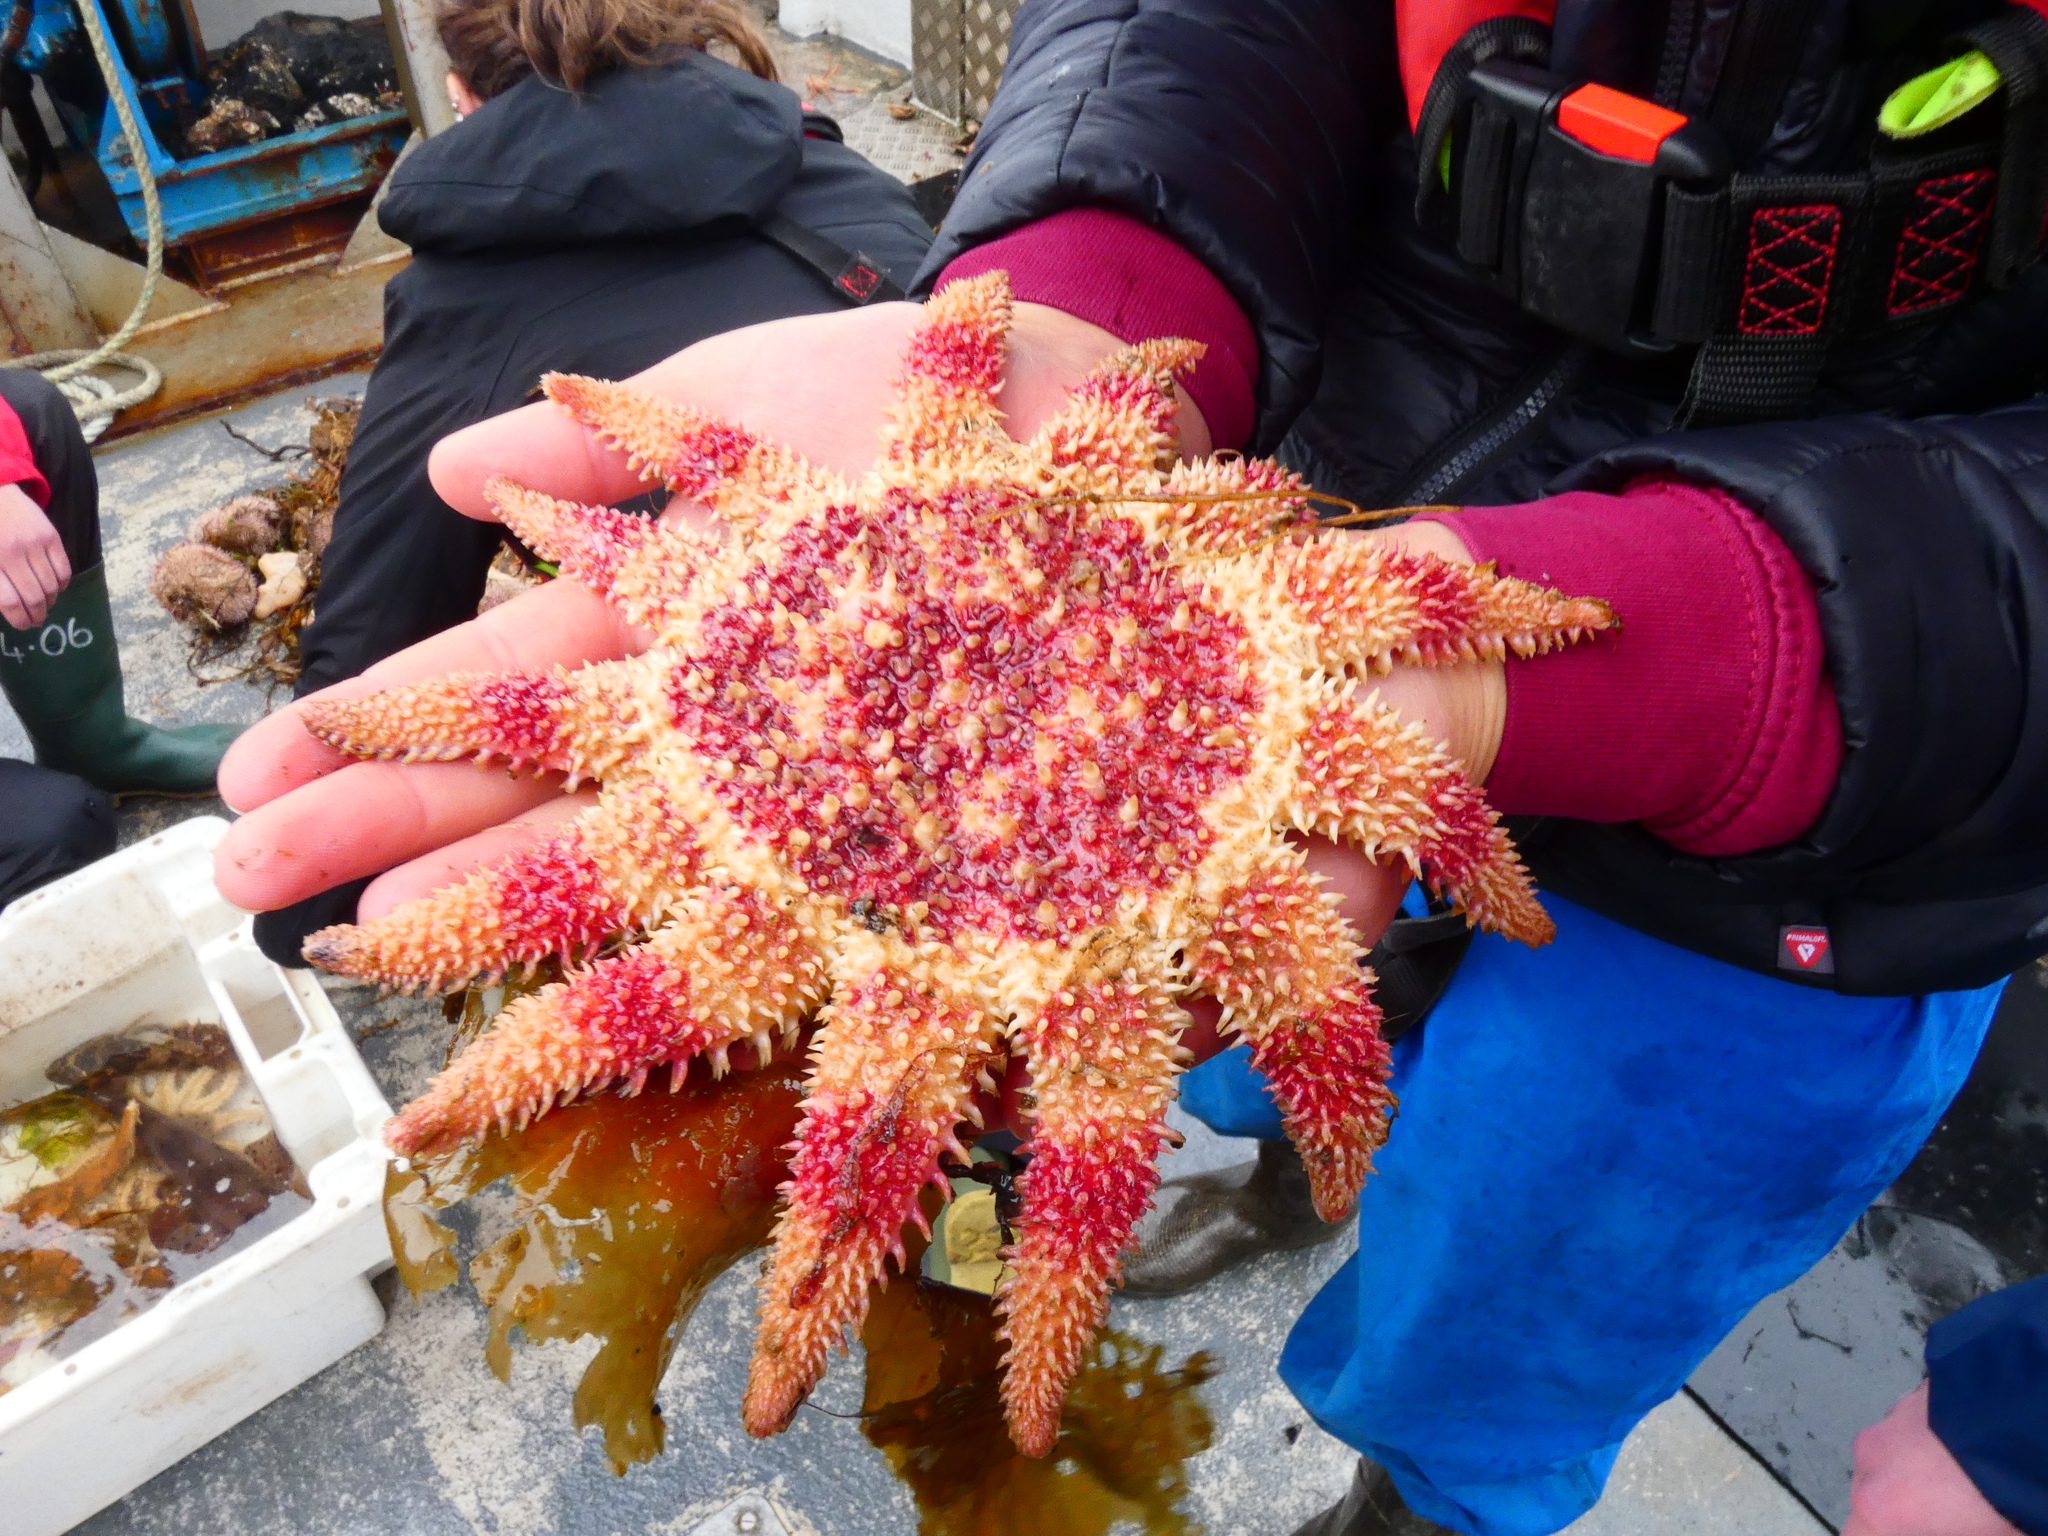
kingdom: Animalia
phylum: Echinodermata
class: Asteroidea
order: Valvatida
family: Solasteridae
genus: Crossaster
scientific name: Crossaster papposus
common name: Common sun star
